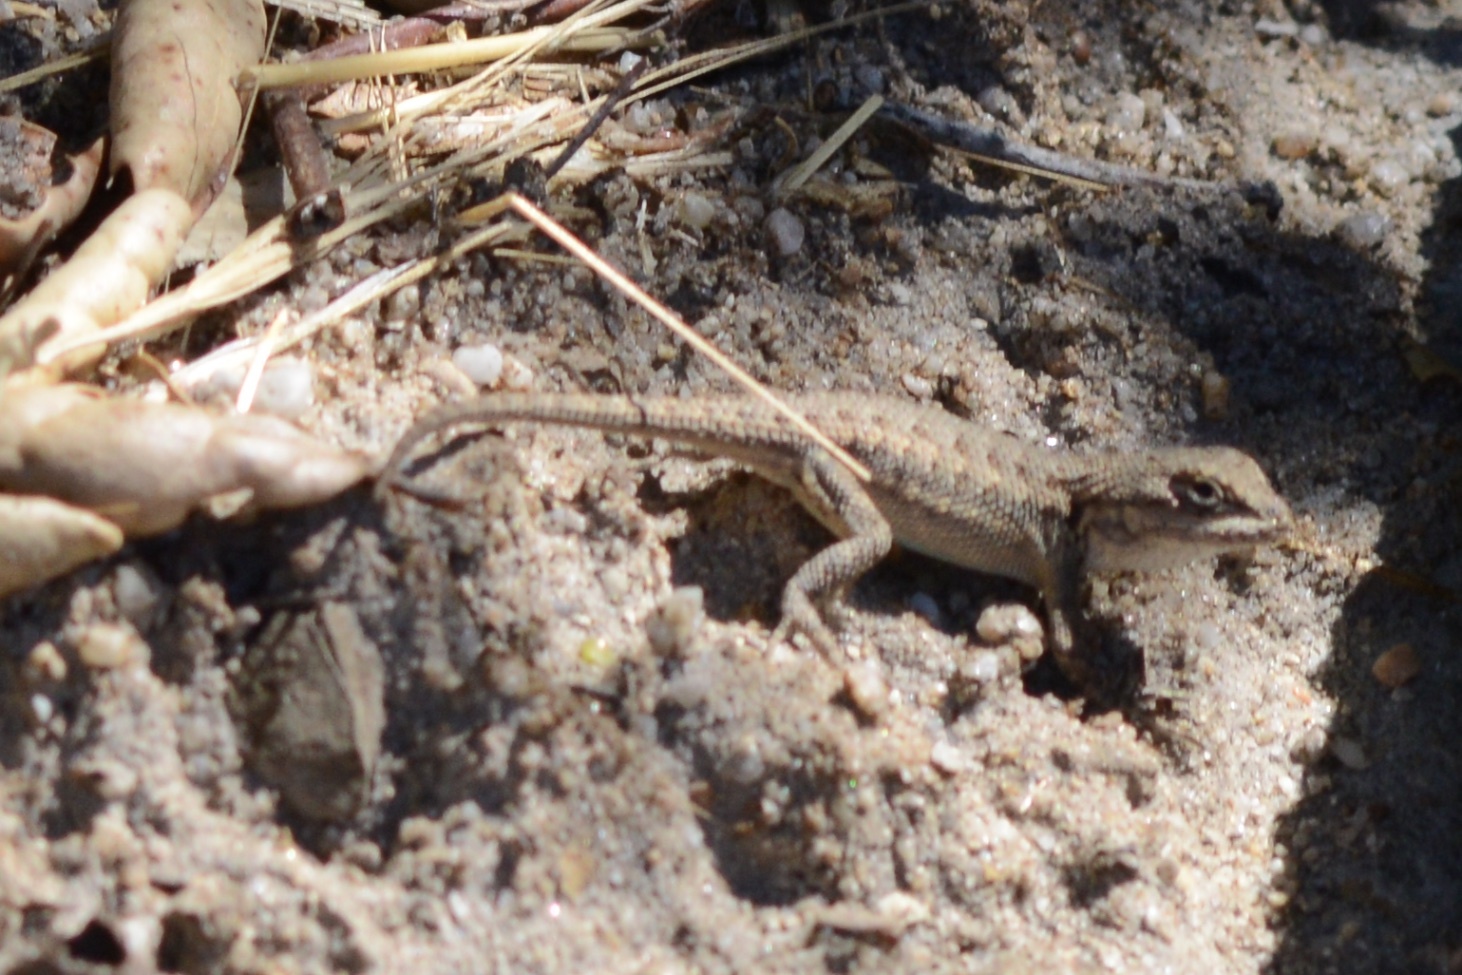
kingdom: Animalia
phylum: Chordata
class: Squamata
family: Phrynosomatidae
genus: Sceloporus
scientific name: Sceloporus occidentalis
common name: Western fence lizard
